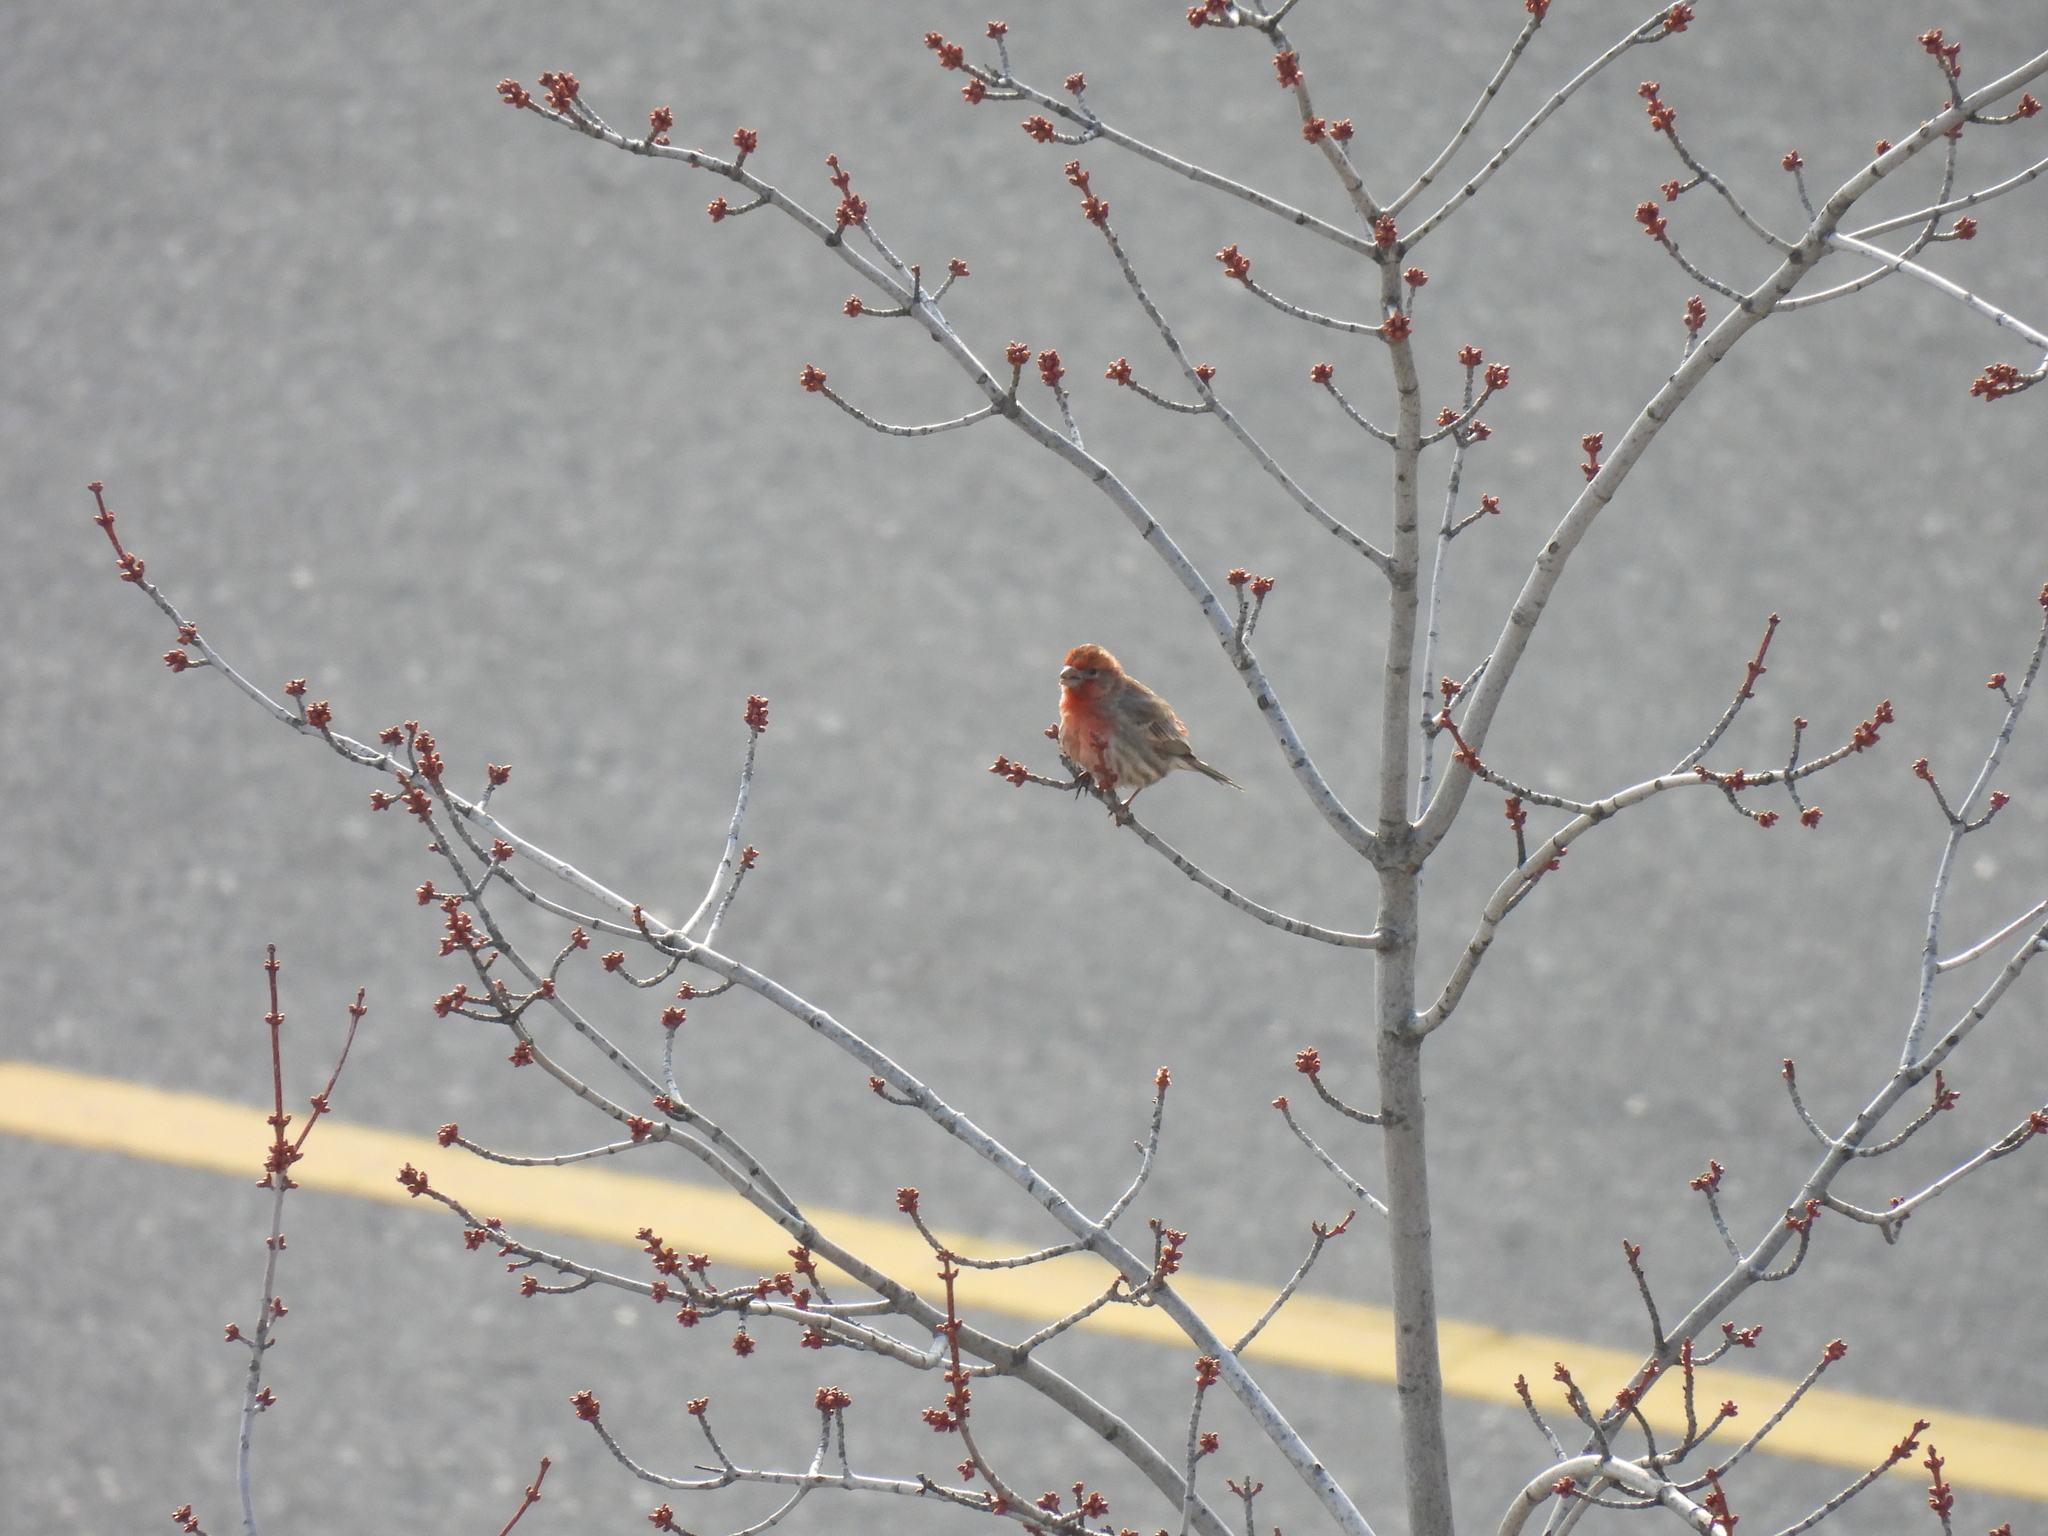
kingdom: Animalia
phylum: Chordata
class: Aves
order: Passeriformes
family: Fringillidae
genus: Haemorhous
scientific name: Haemorhous mexicanus
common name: House finch
